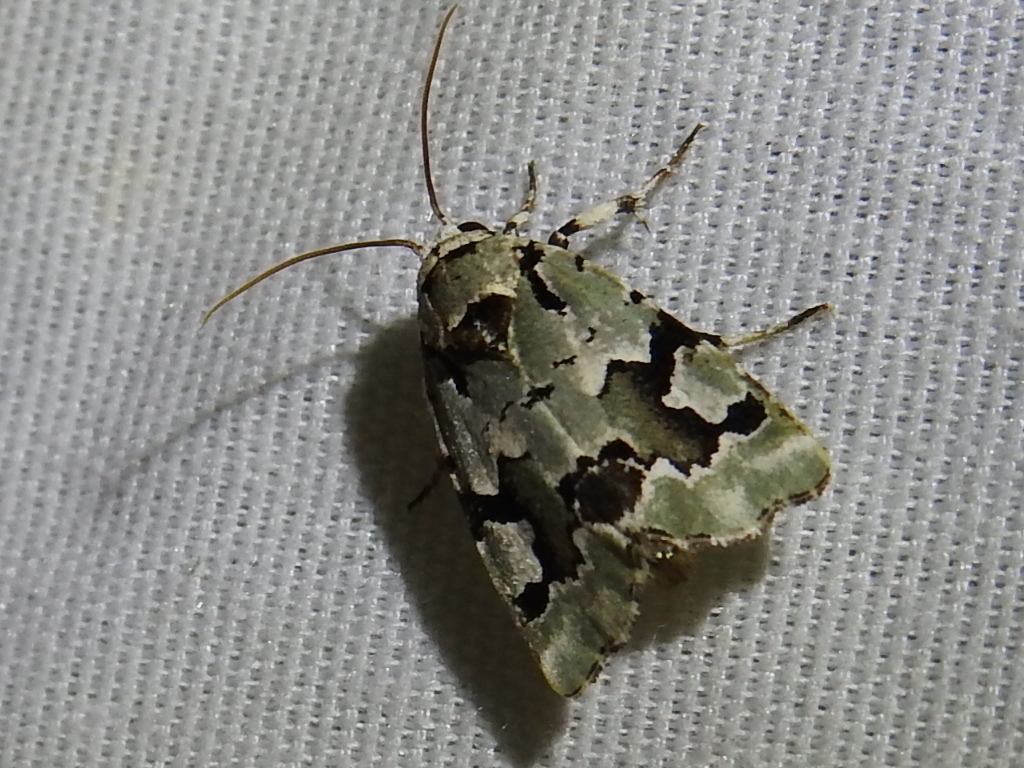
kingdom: Animalia
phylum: Arthropoda
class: Insecta
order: Lepidoptera
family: Noctuidae
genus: Emarginea
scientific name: Emarginea percara
